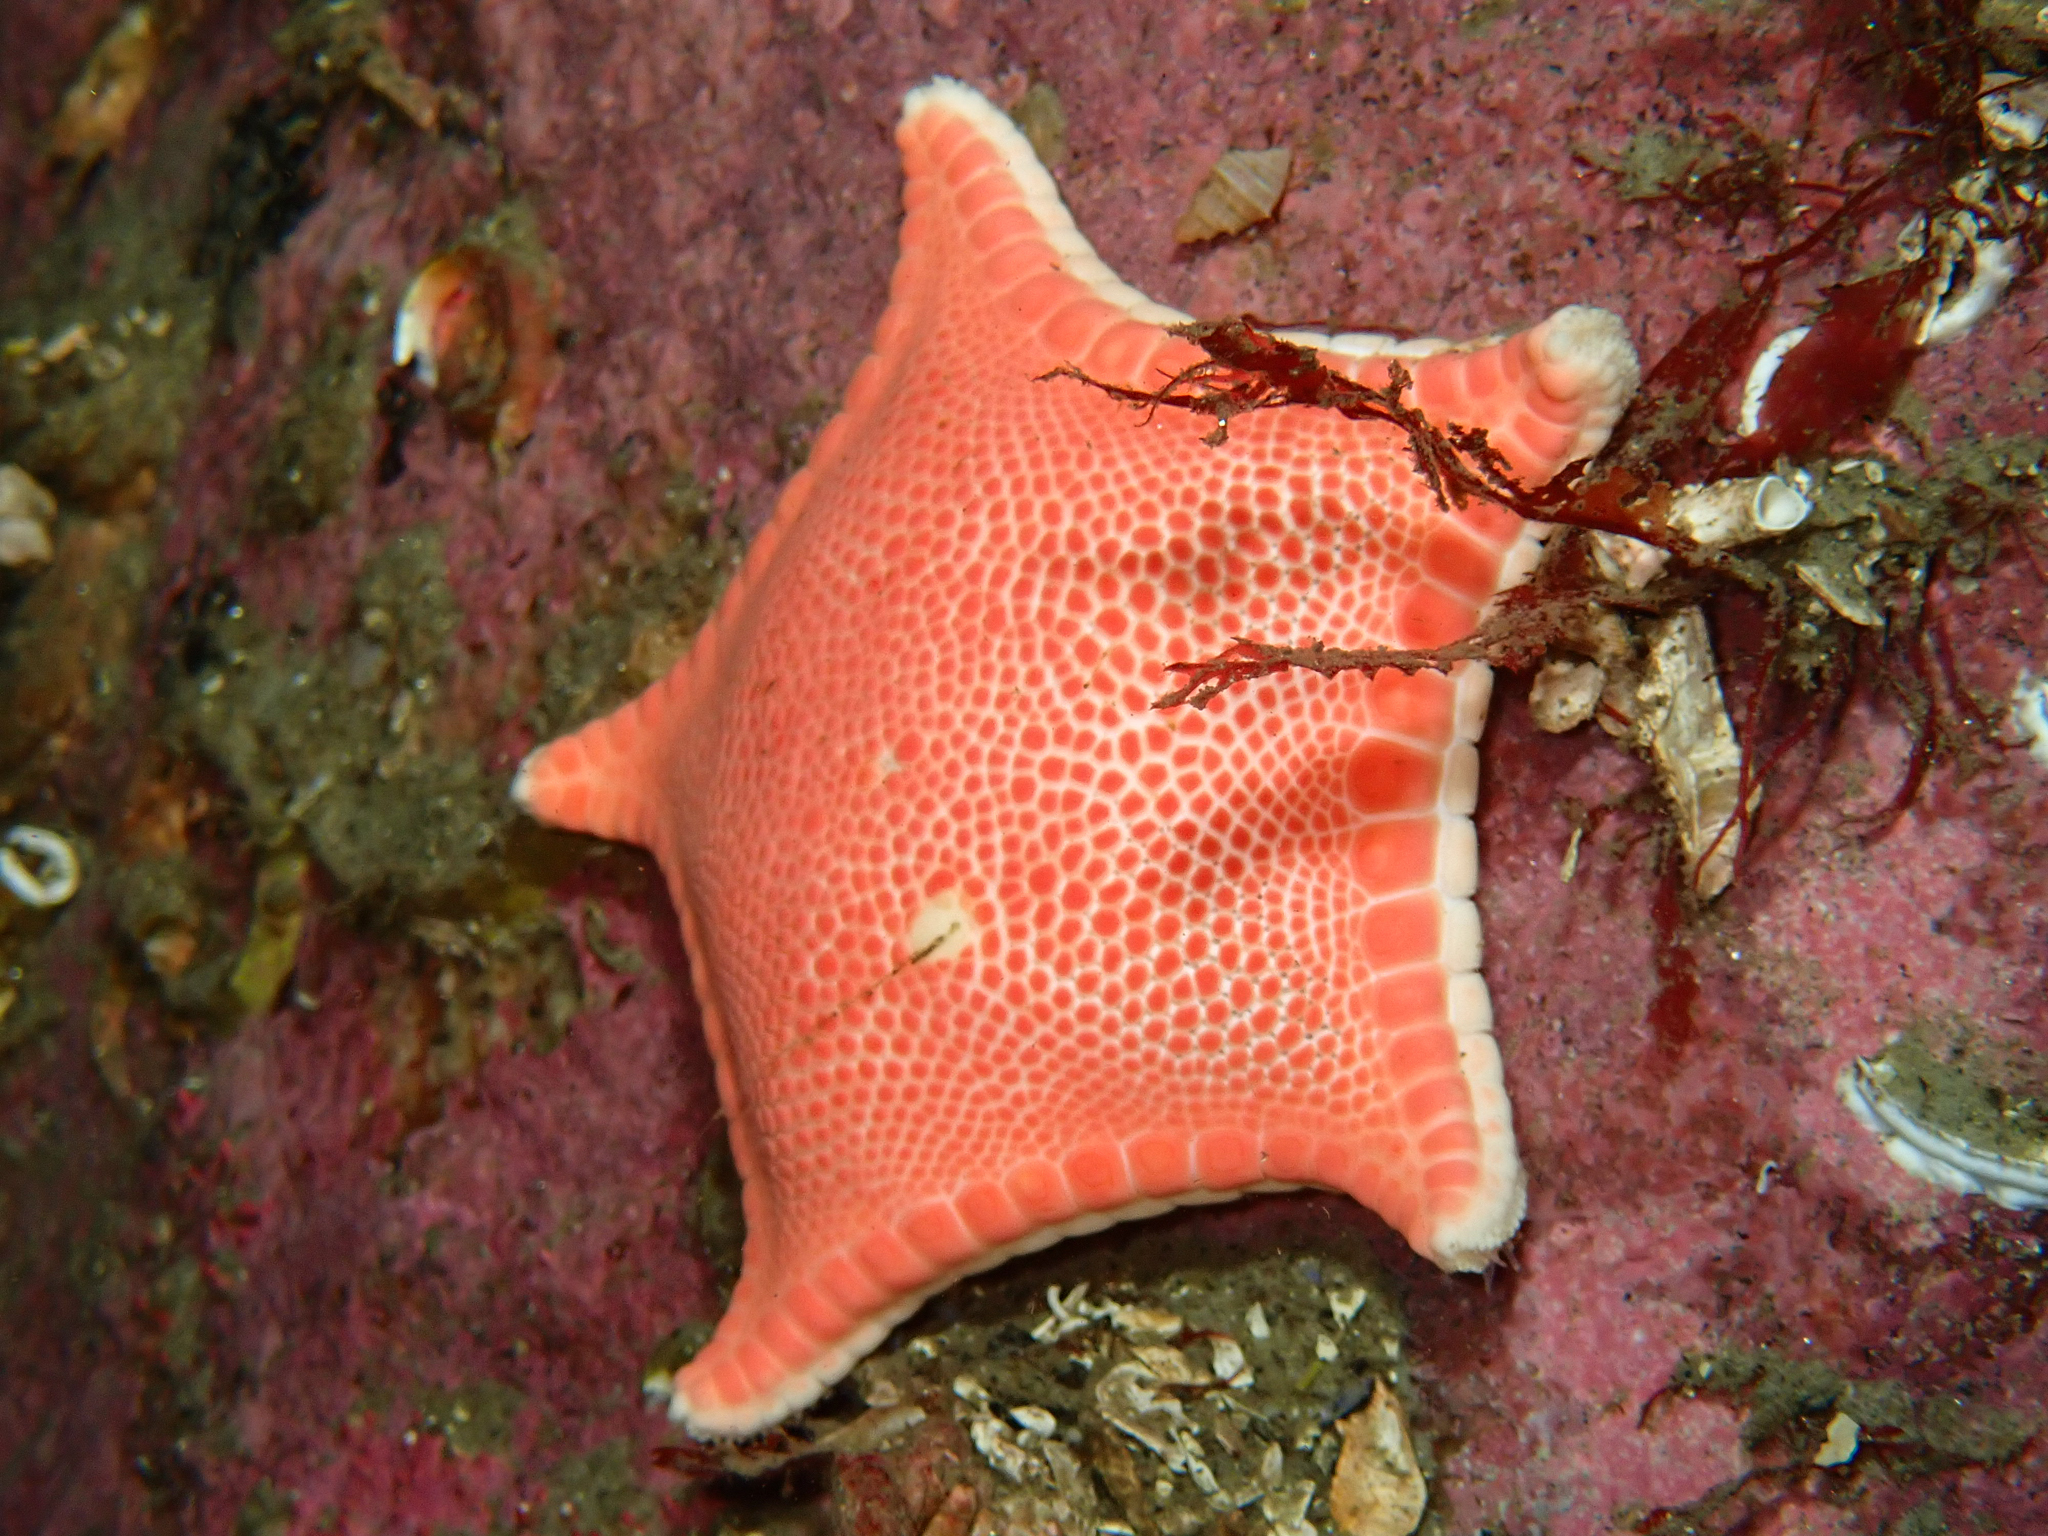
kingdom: Animalia
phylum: Echinodermata
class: Asteroidea
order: Valvatida
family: Goniasteridae
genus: Ceramaster
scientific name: Ceramaster granularis
